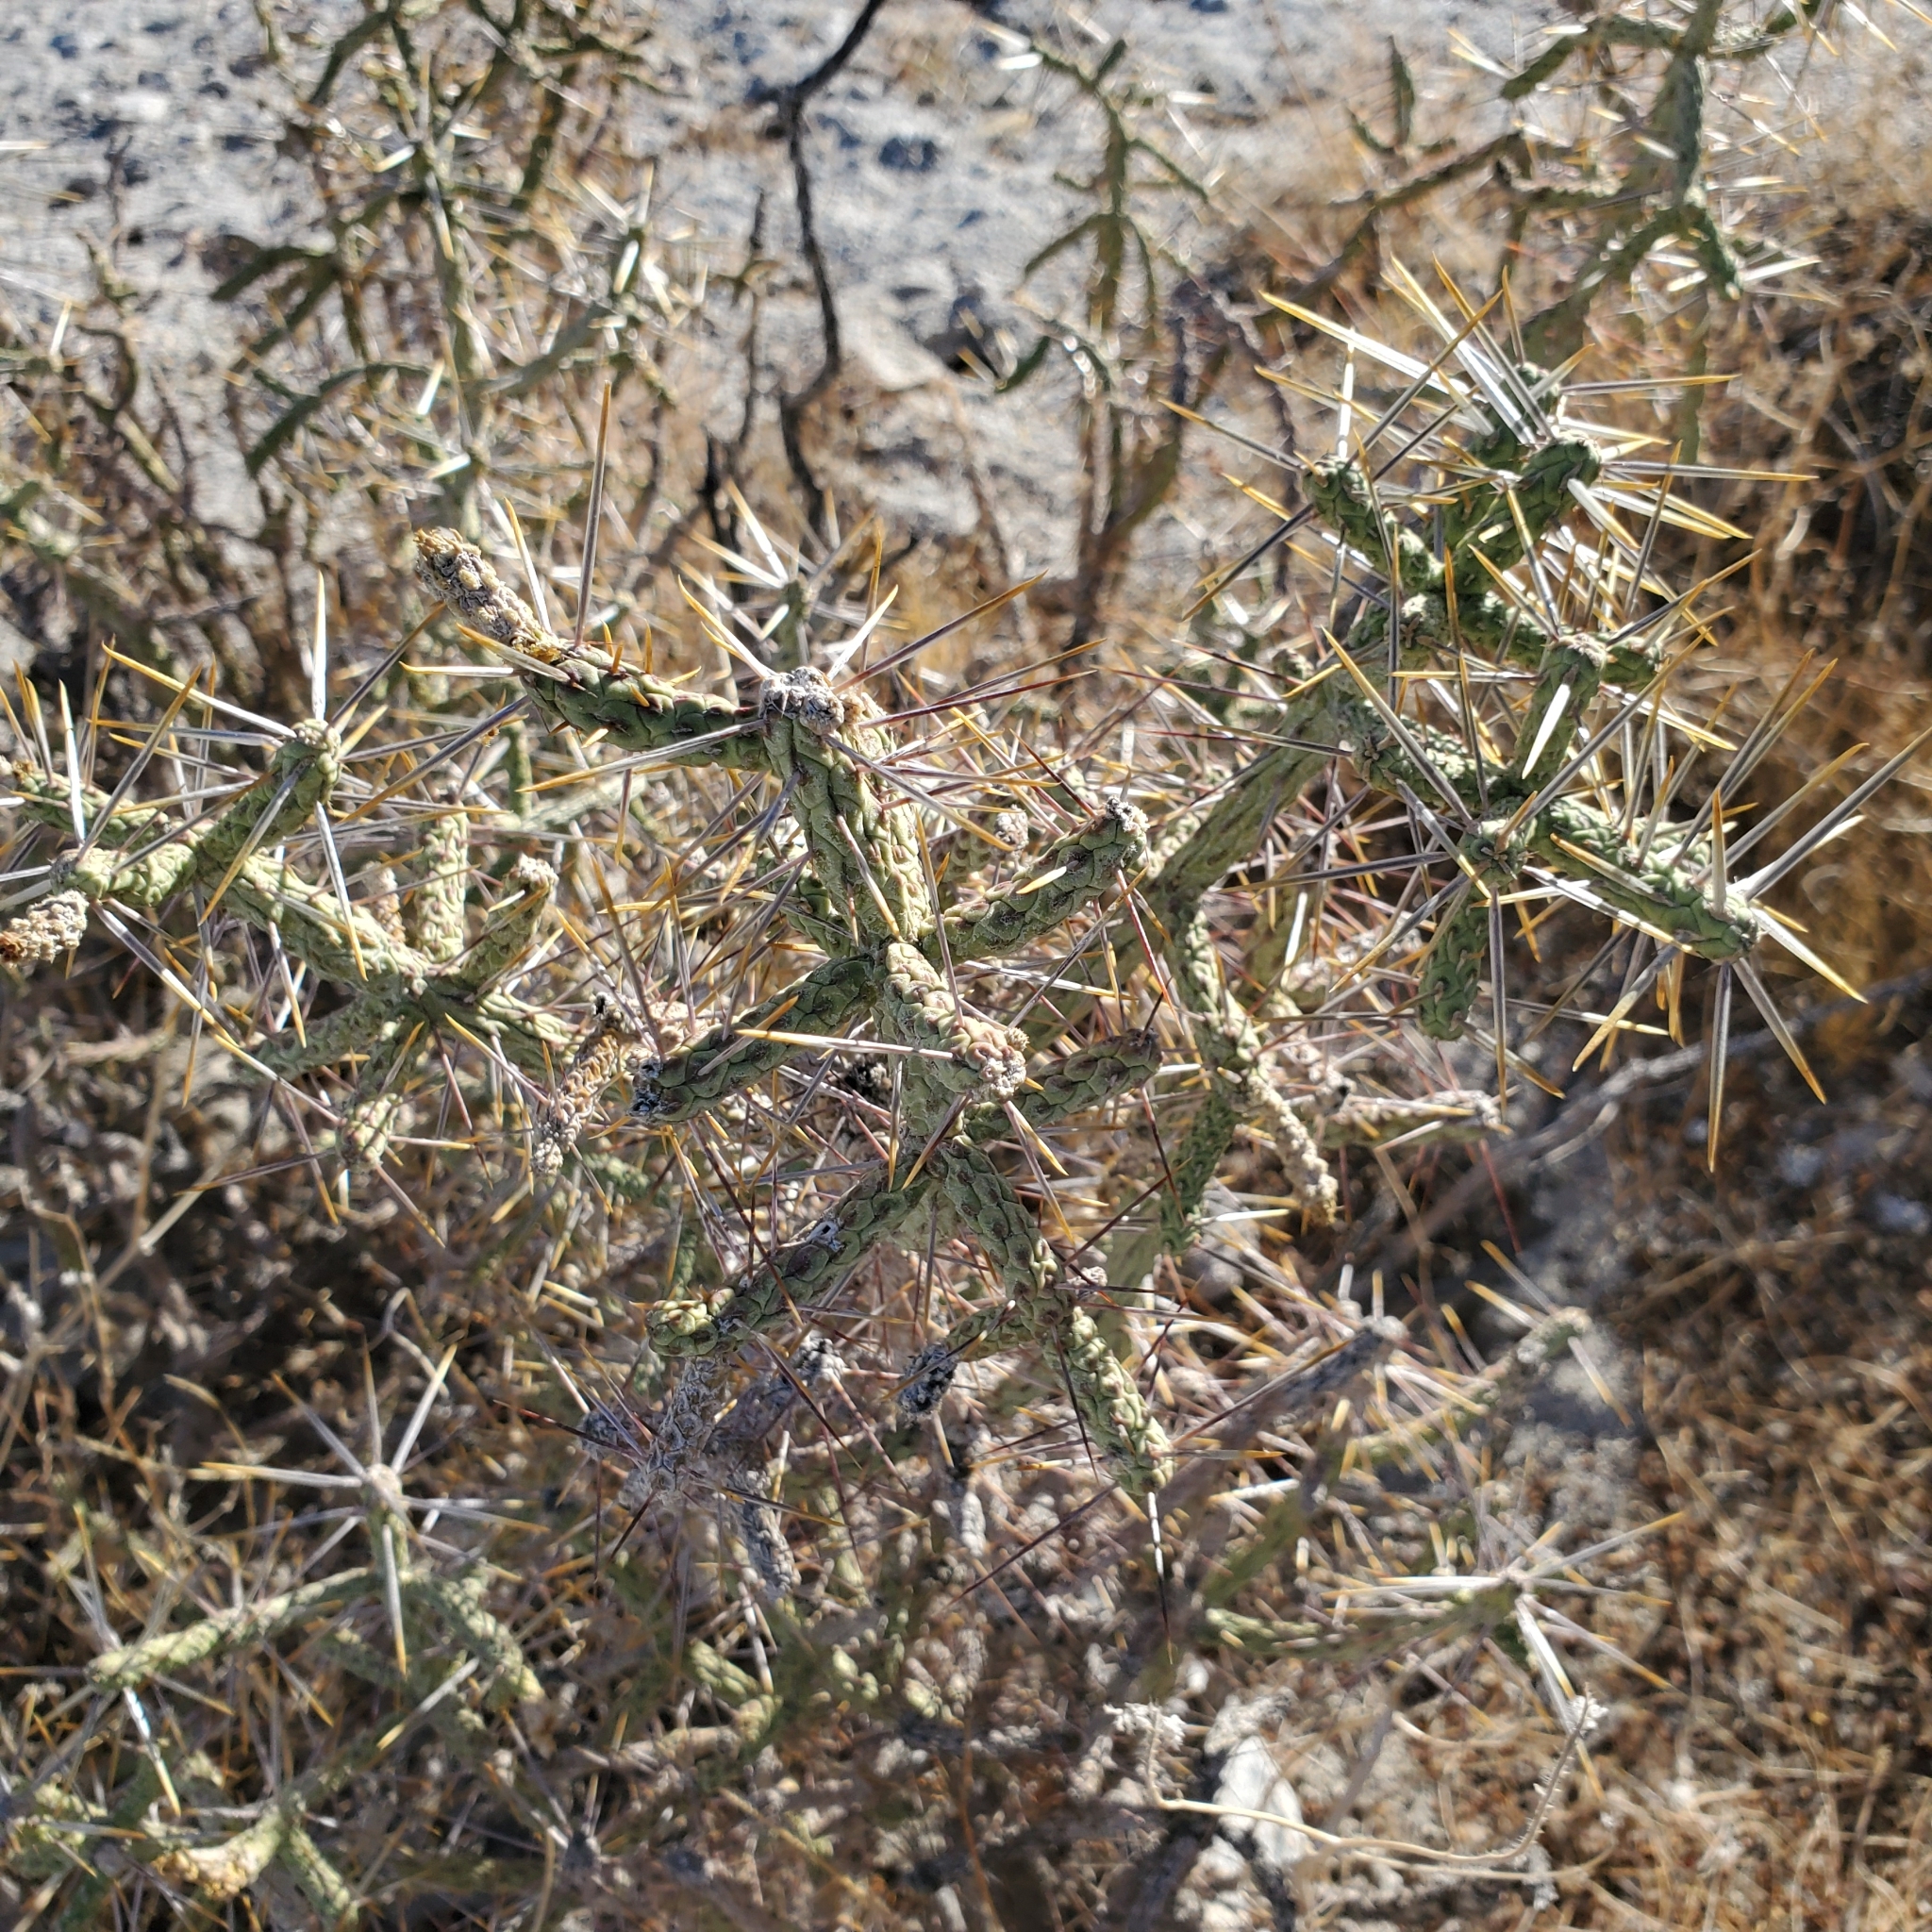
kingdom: Plantae
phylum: Tracheophyta
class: Magnoliopsida
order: Caryophyllales
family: Cactaceae
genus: Cylindropuntia
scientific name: Cylindropuntia ramosissima
